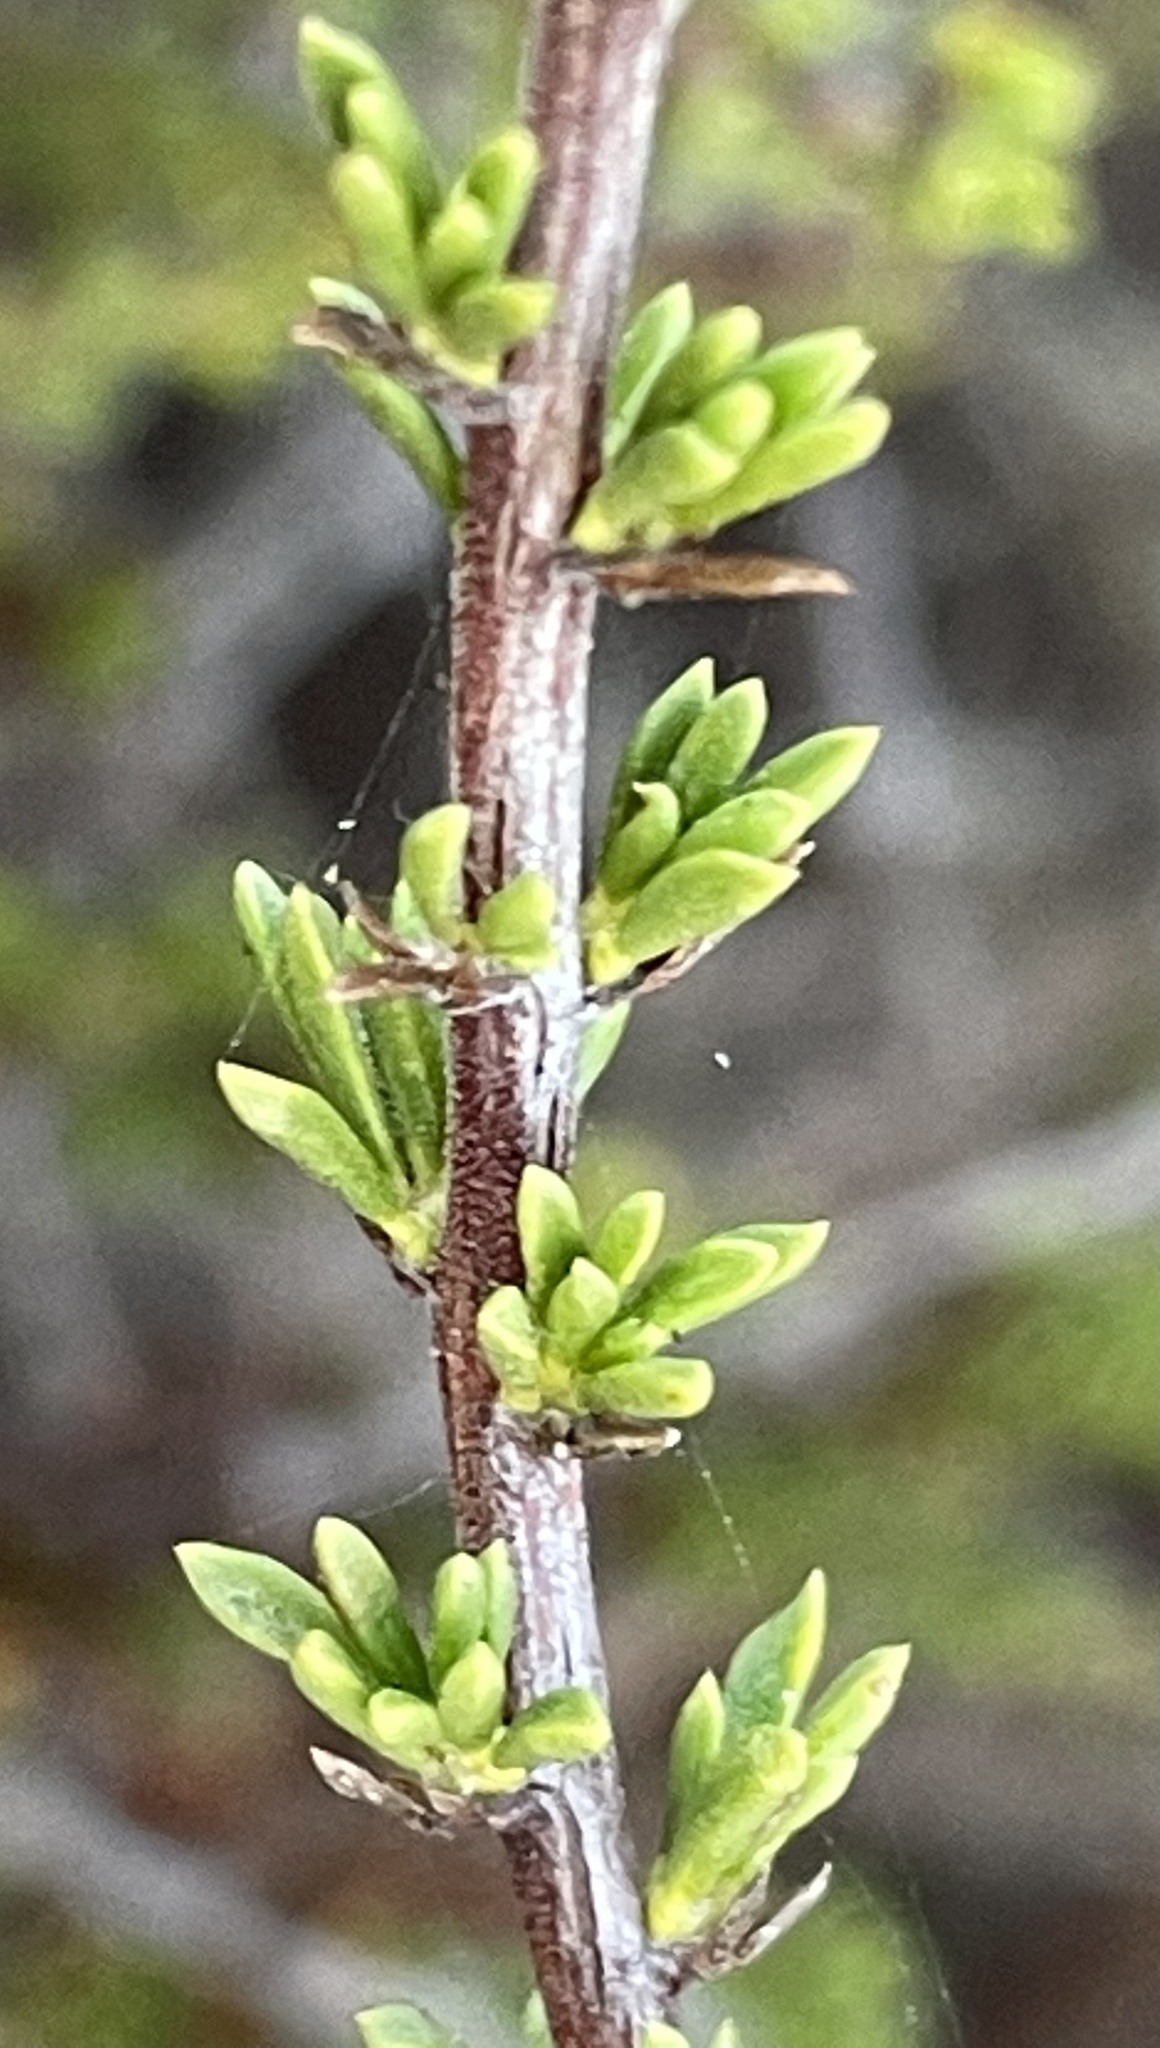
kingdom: Plantae
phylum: Tracheophyta
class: Magnoliopsida
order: Rosales
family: Rosaceae
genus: Adenostoma
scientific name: Adenostoma fasciculatum
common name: Chamise
